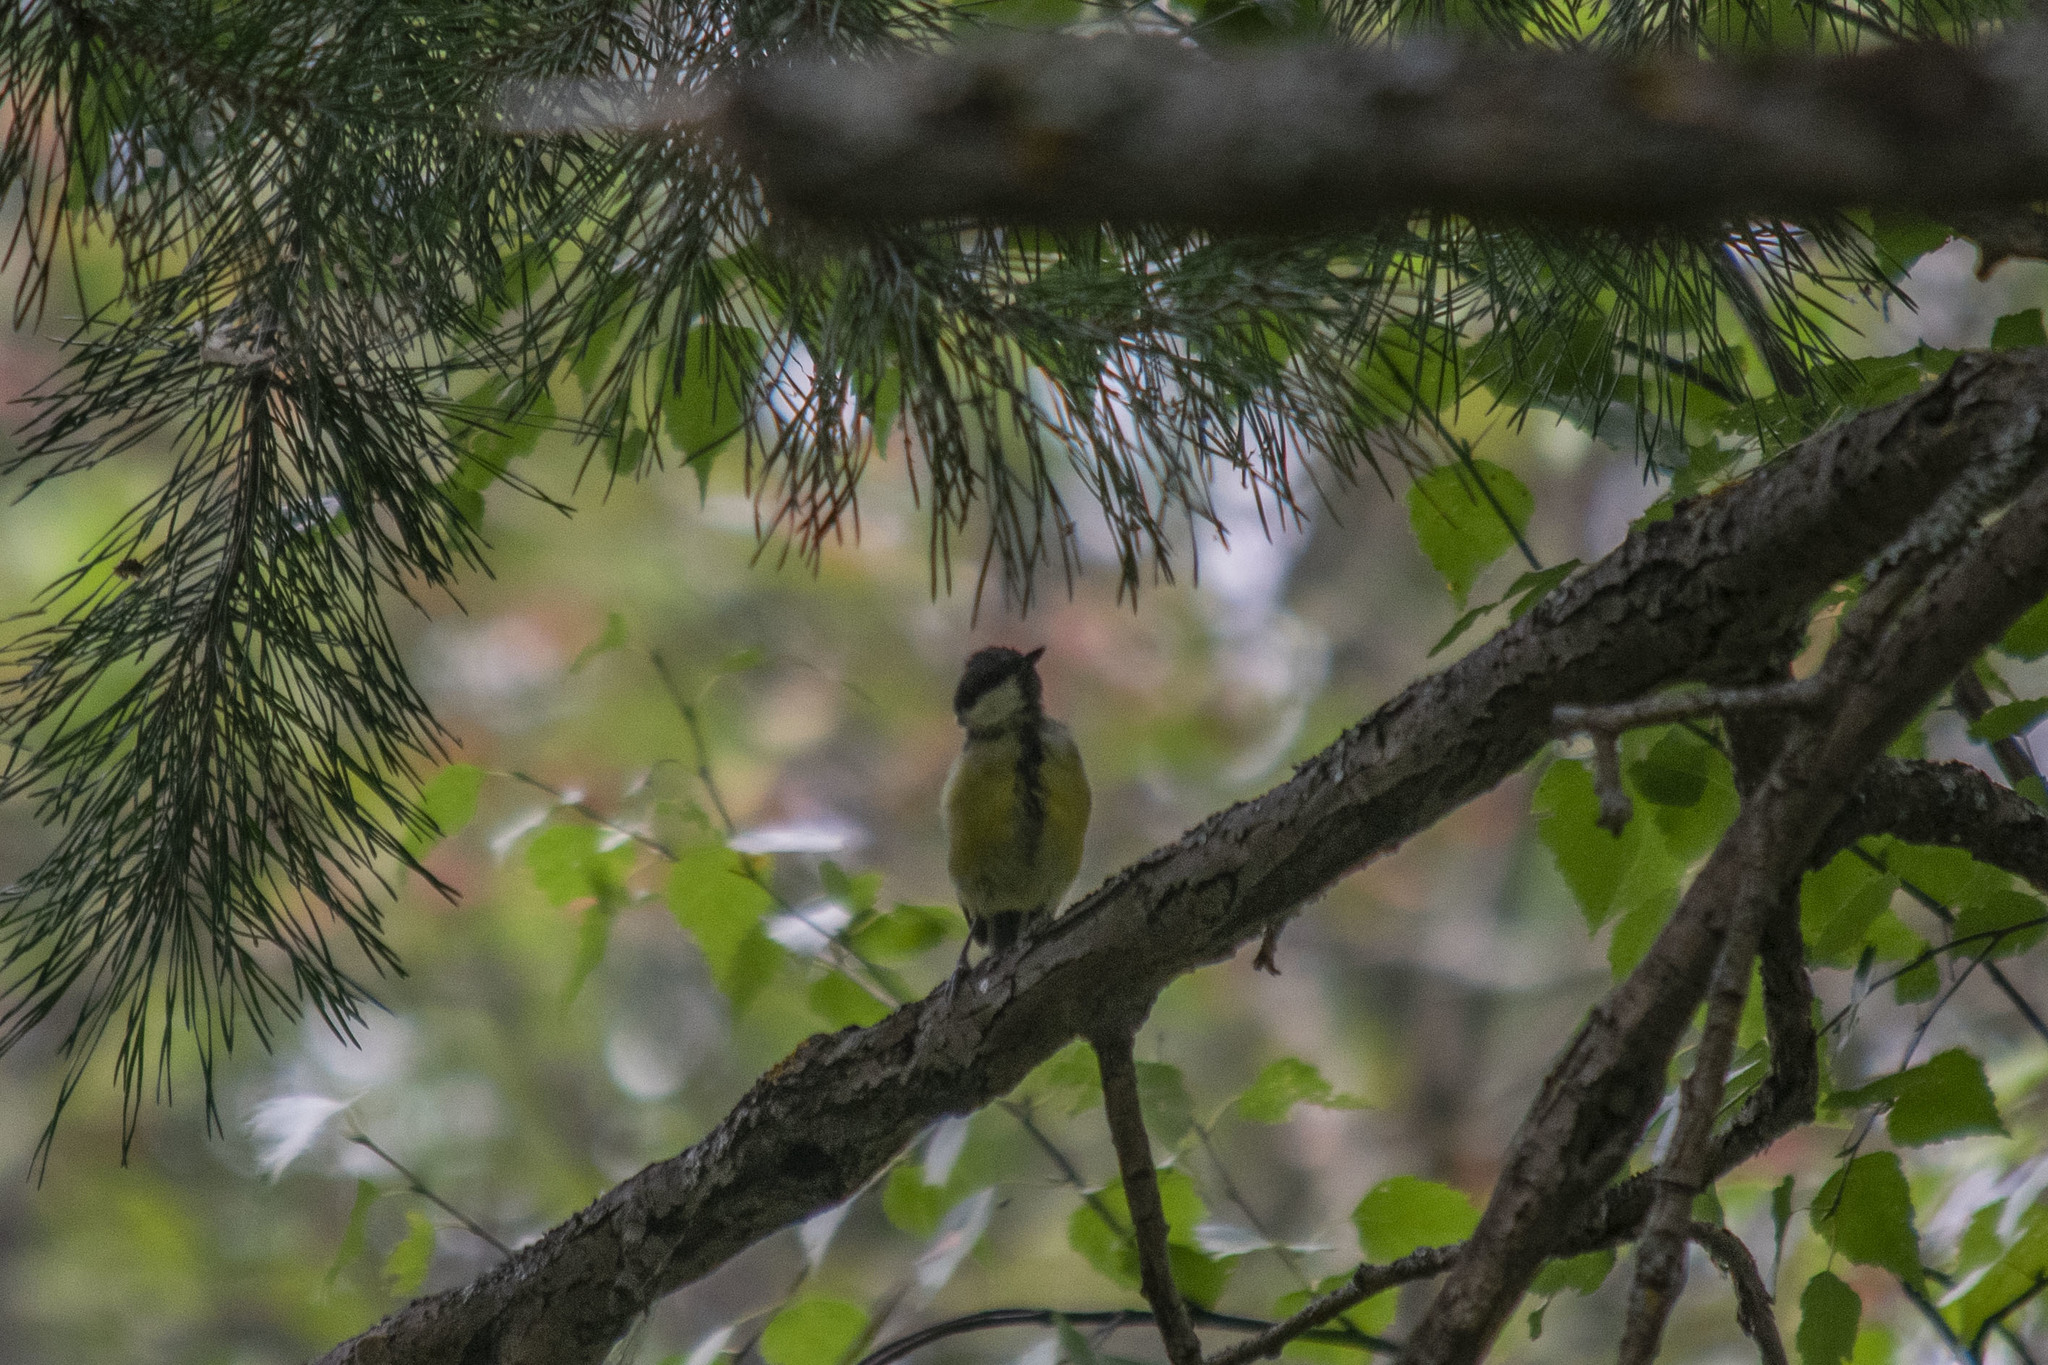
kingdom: Animalia
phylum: Chordata
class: Aves
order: Passeriformes
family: Paridae
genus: Parus
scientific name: Parus major
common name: Great tit
